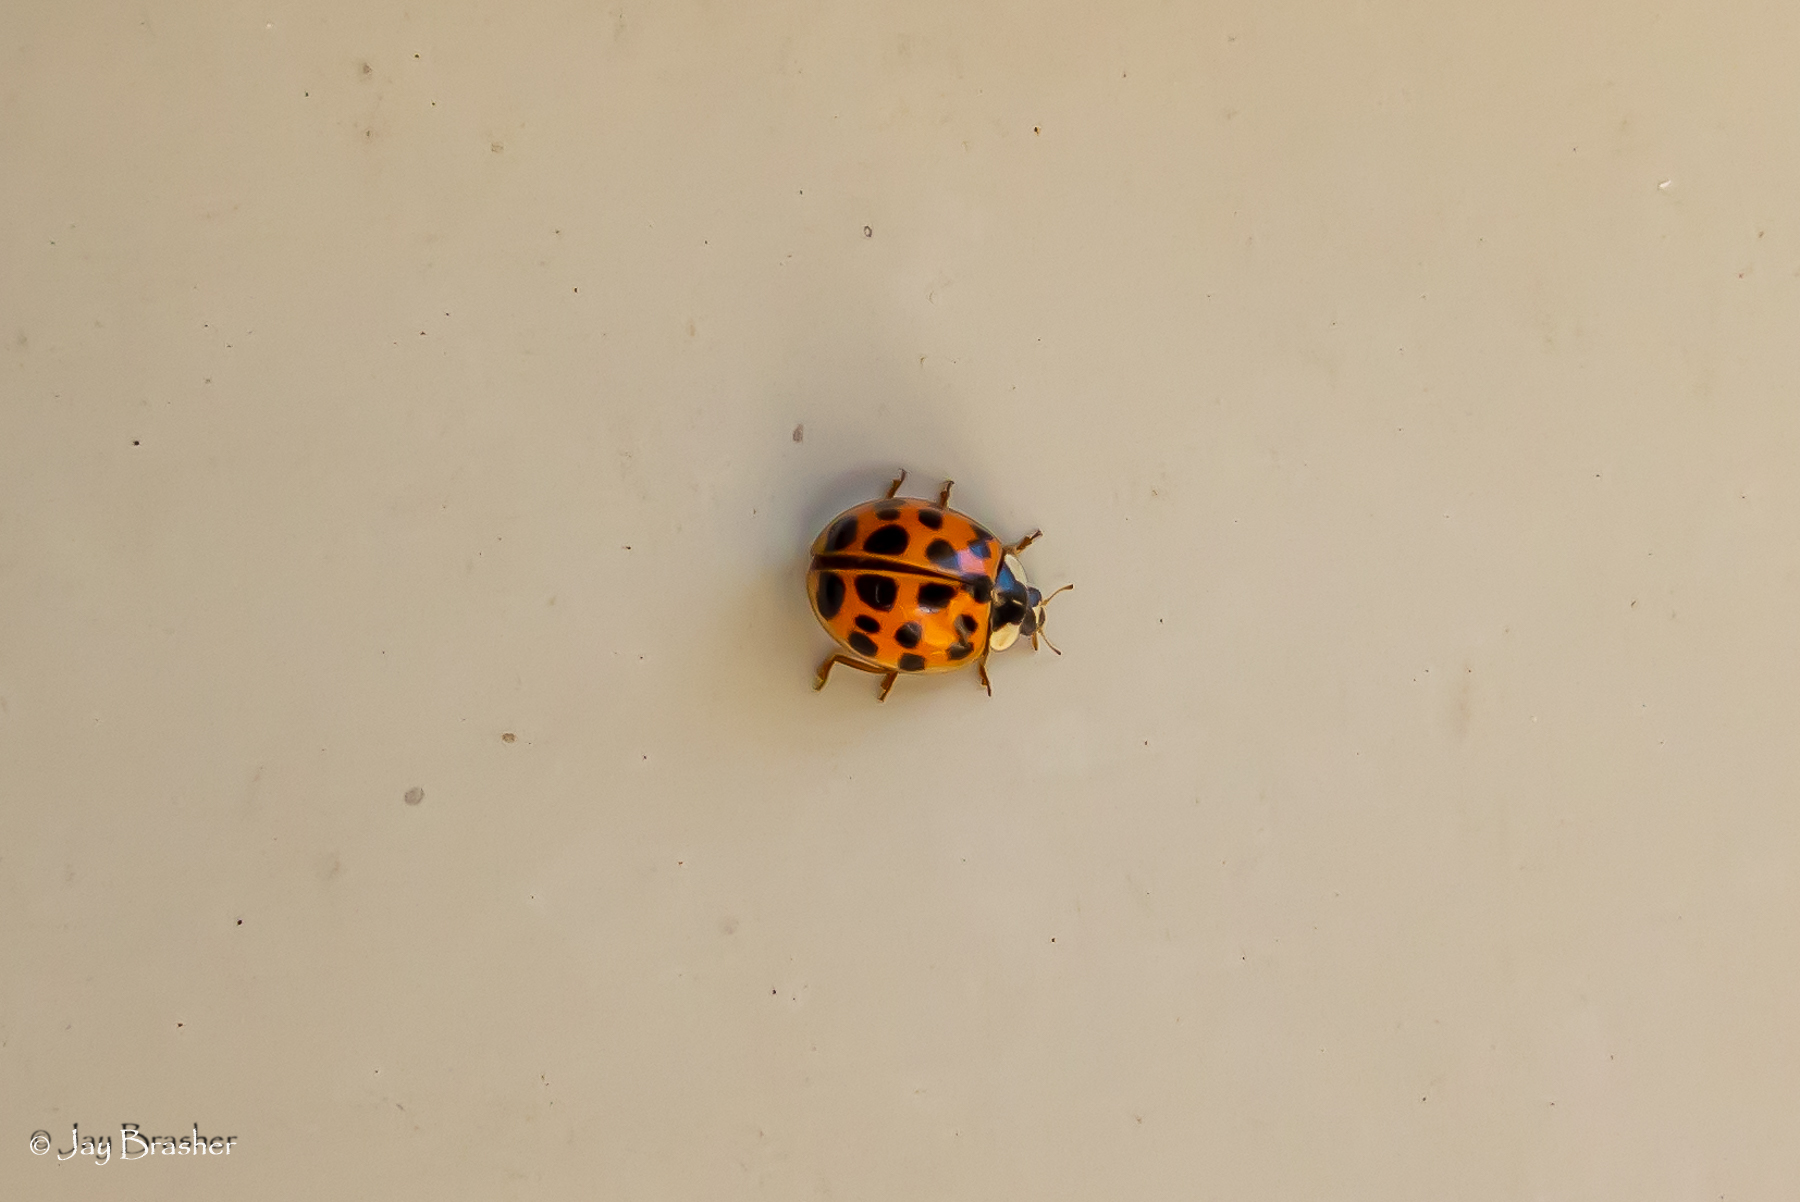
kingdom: Animalia
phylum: Arthropoda
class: Insecta
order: Coleoptera
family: Coccinellidae
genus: Harmonia
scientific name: Harmonia axyridis
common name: Harlequin ladybird
